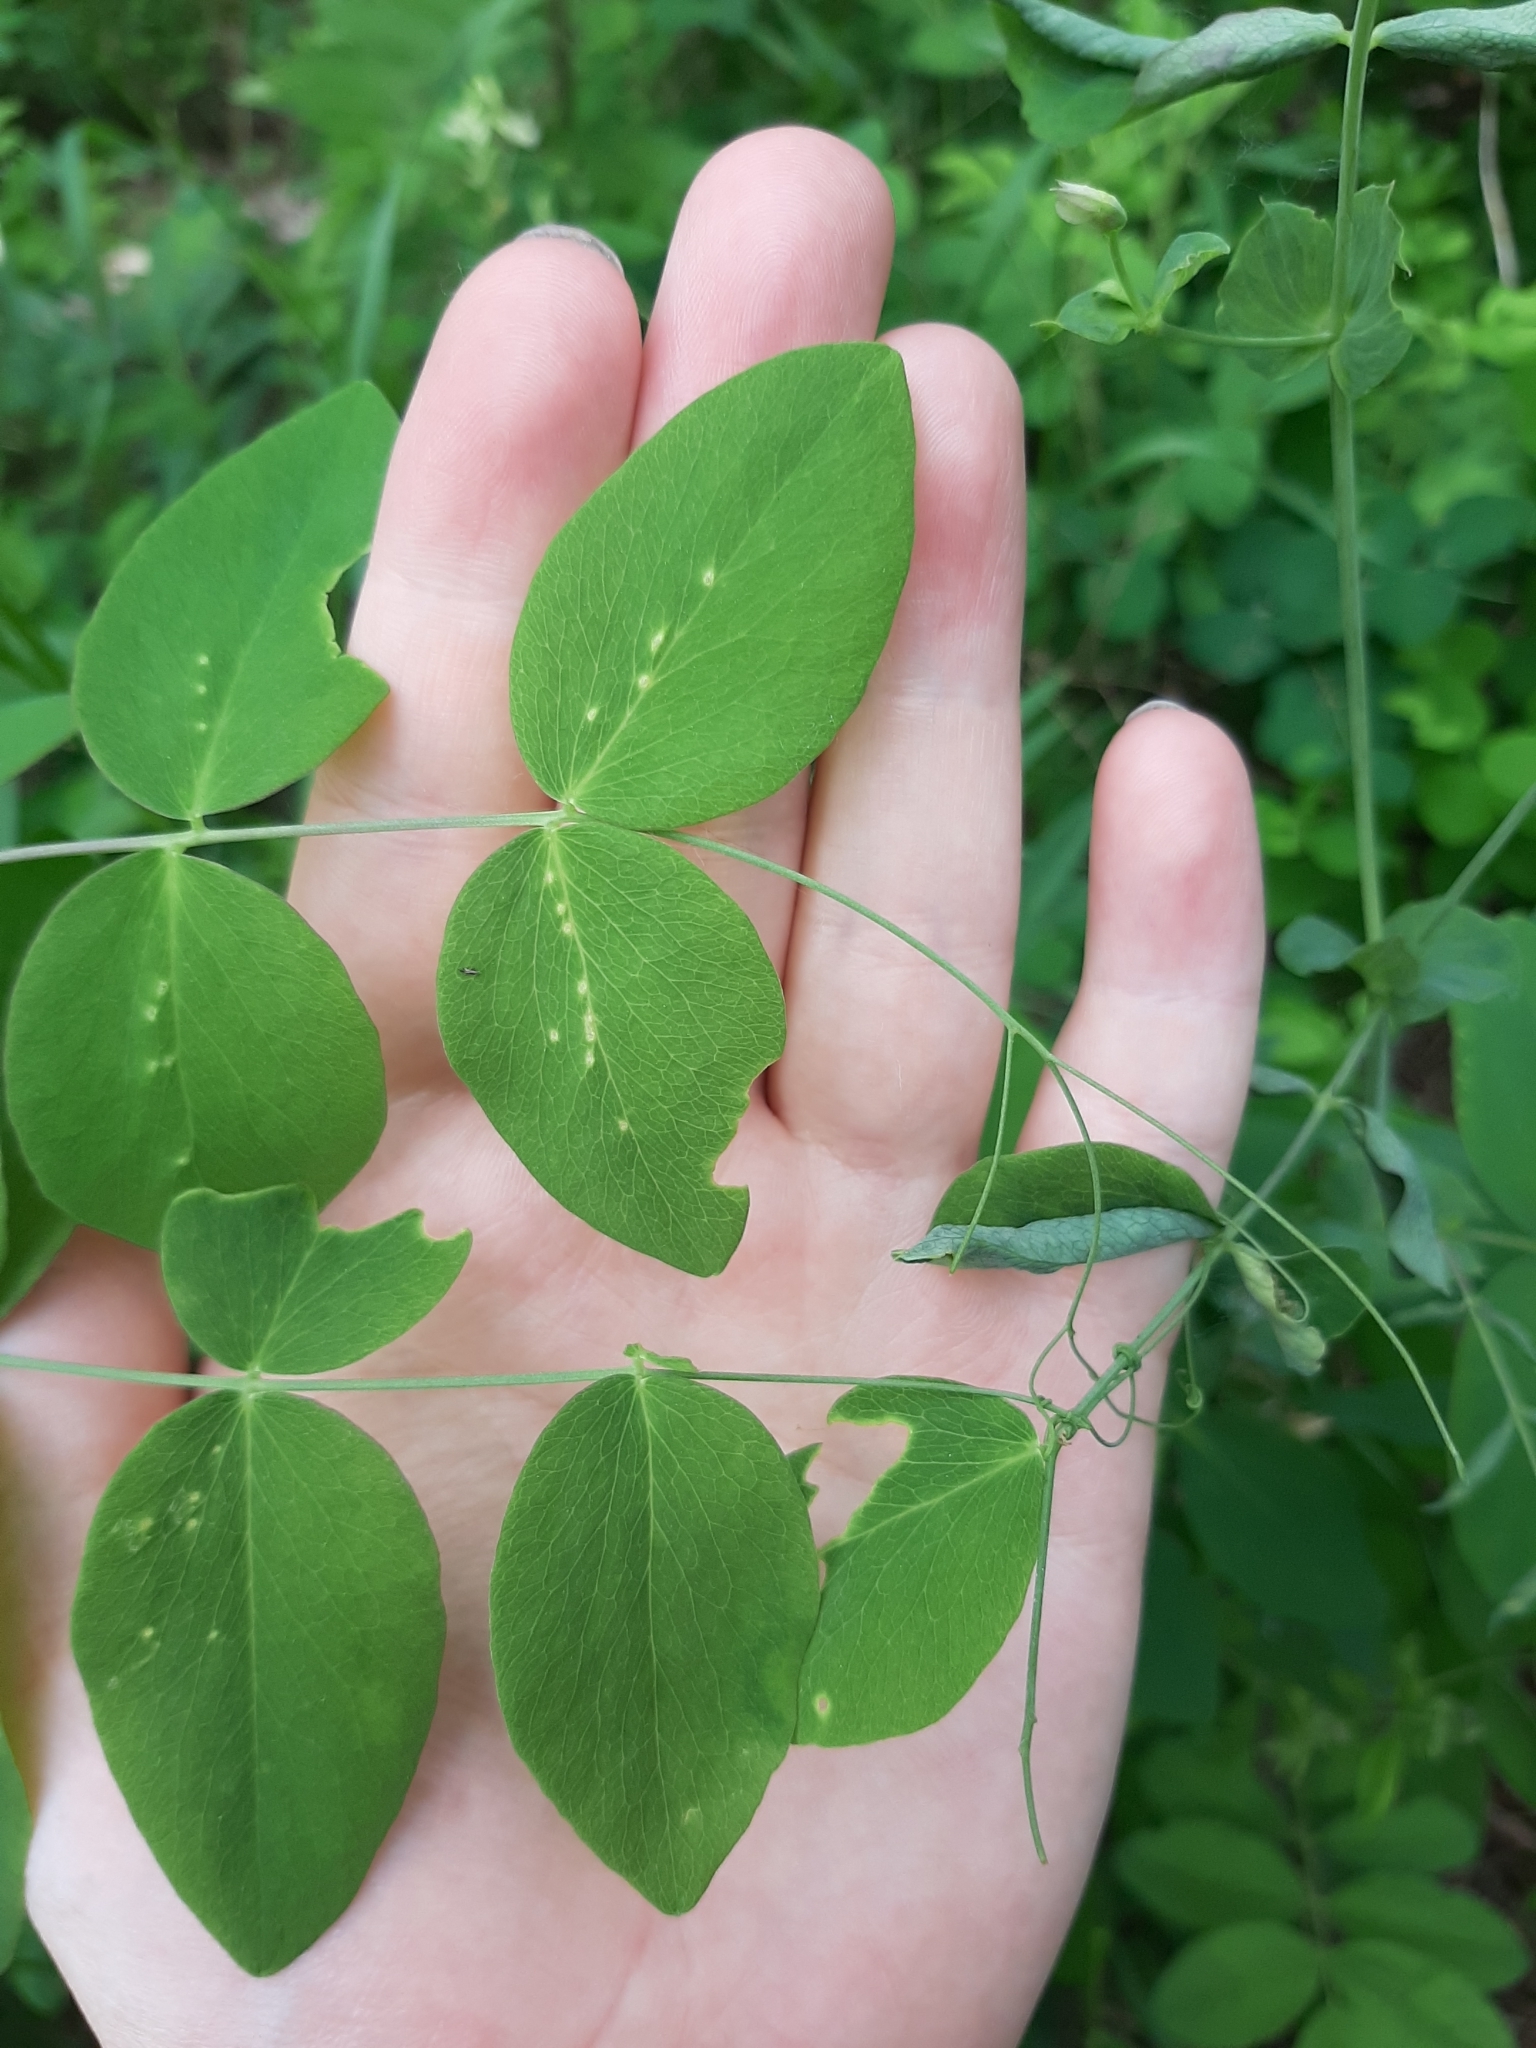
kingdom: Plantae
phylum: Tracheophyta
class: Magnoliopsida
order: Fabales
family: Fabaceae
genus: Lathyrus
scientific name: Lathyrus ochroleucus
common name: Pale vetchling
